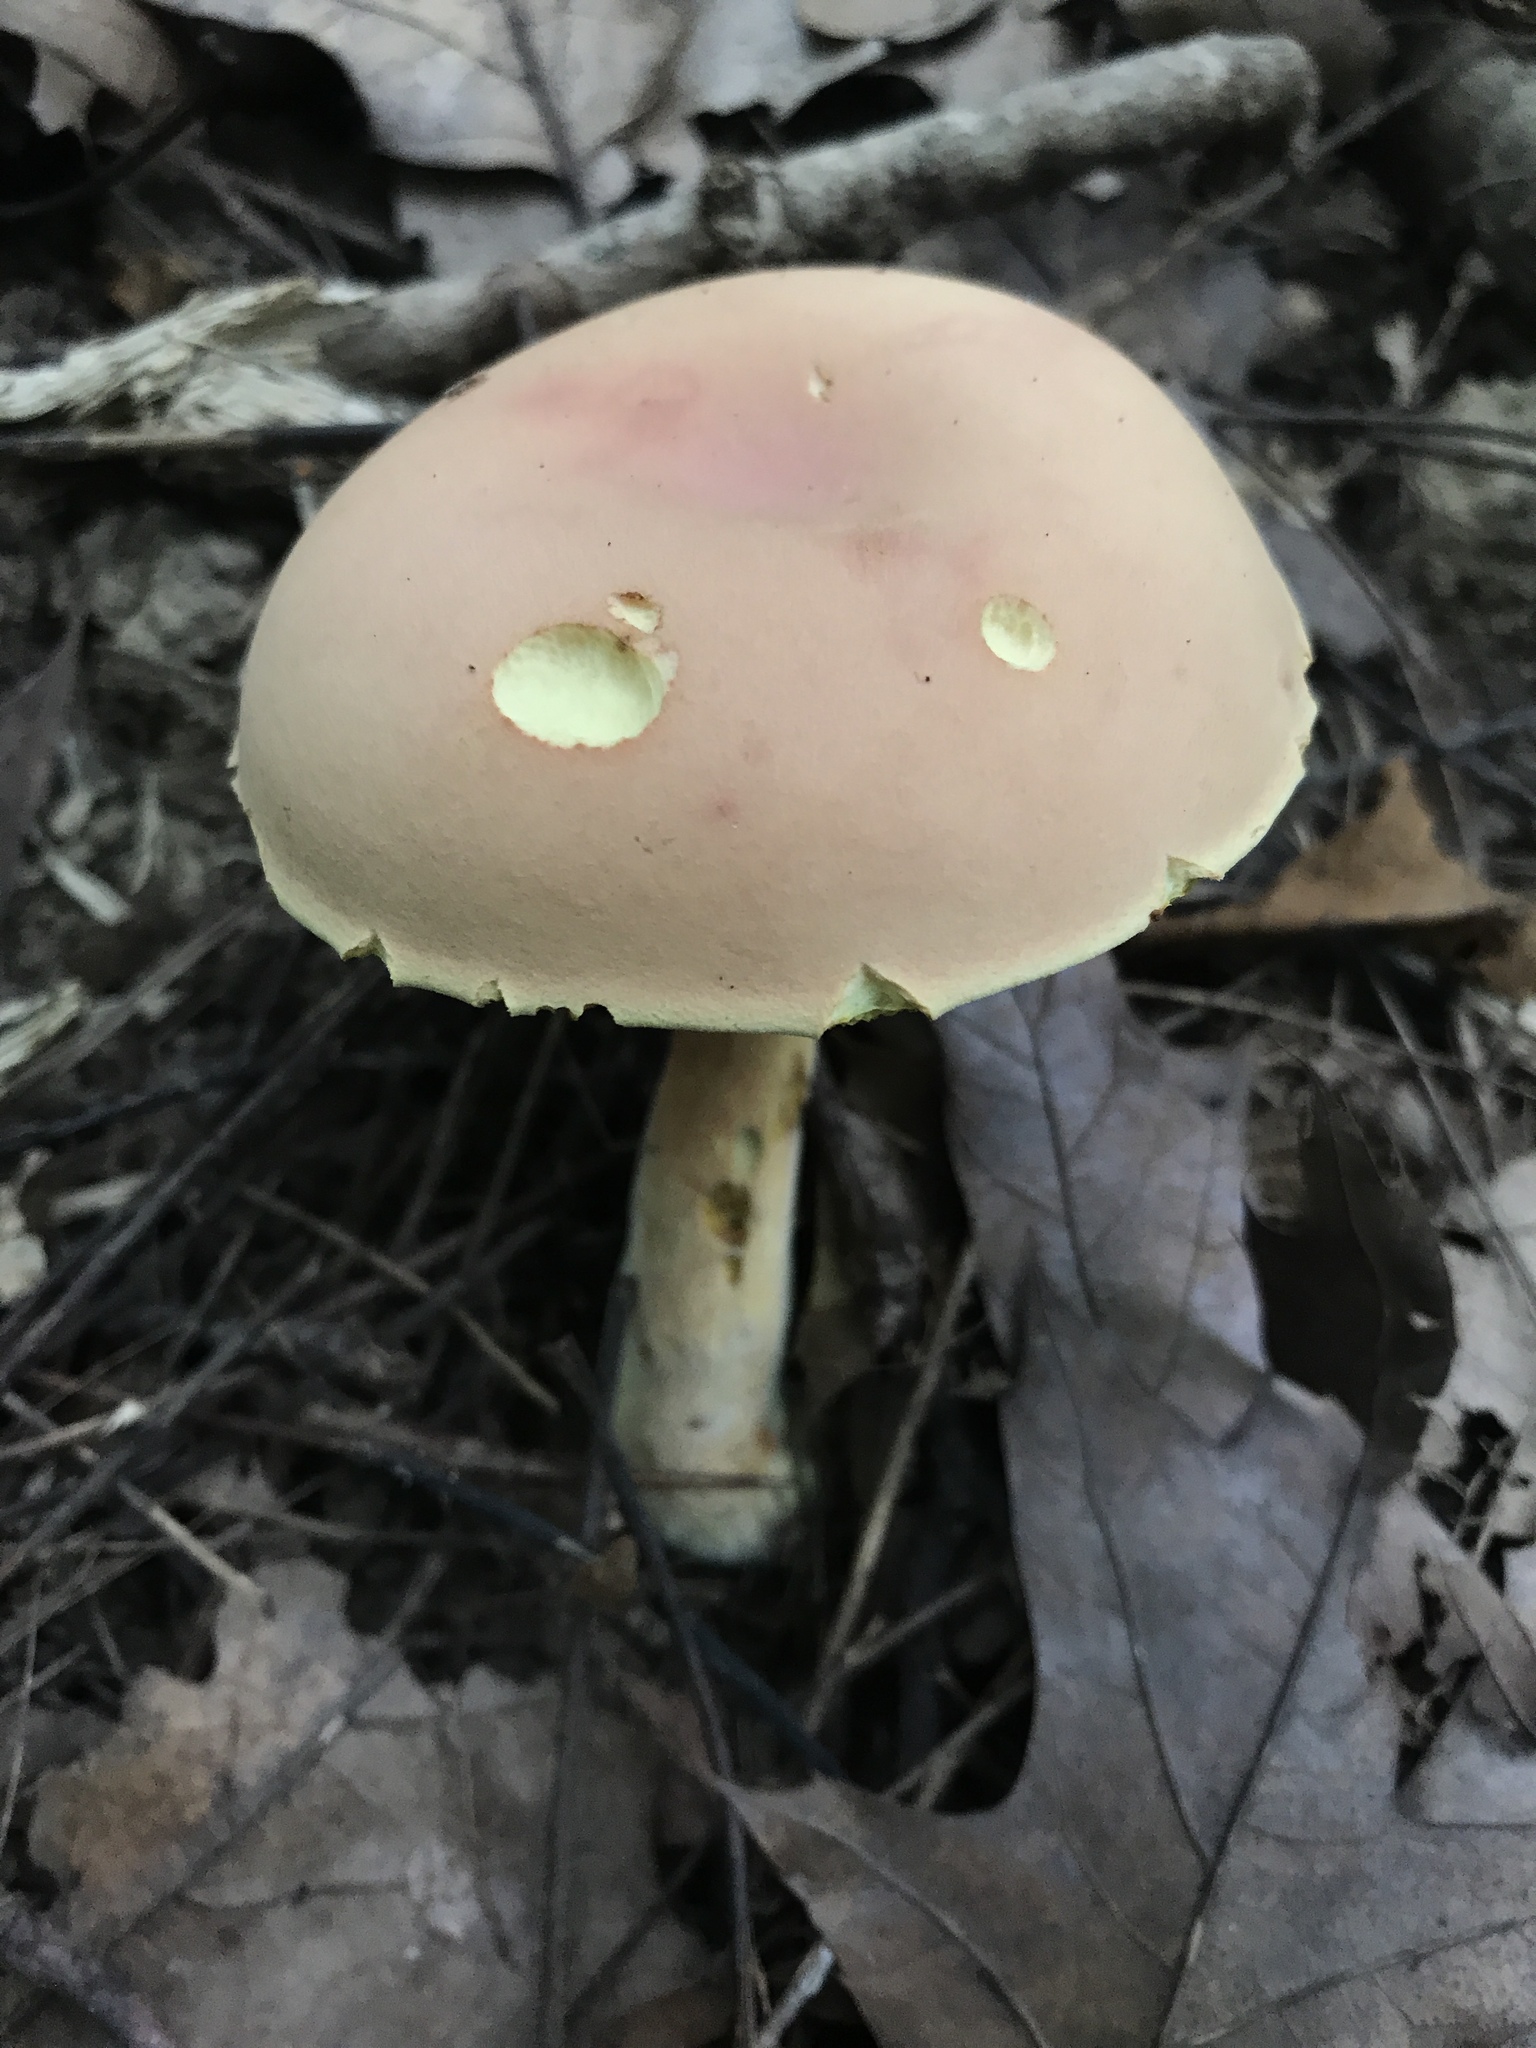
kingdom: Fungi
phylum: Basidiomycota
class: Agaricomycetes
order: Boletales
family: Boletaceae
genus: Boletus
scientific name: Boletus miniatopallescens
